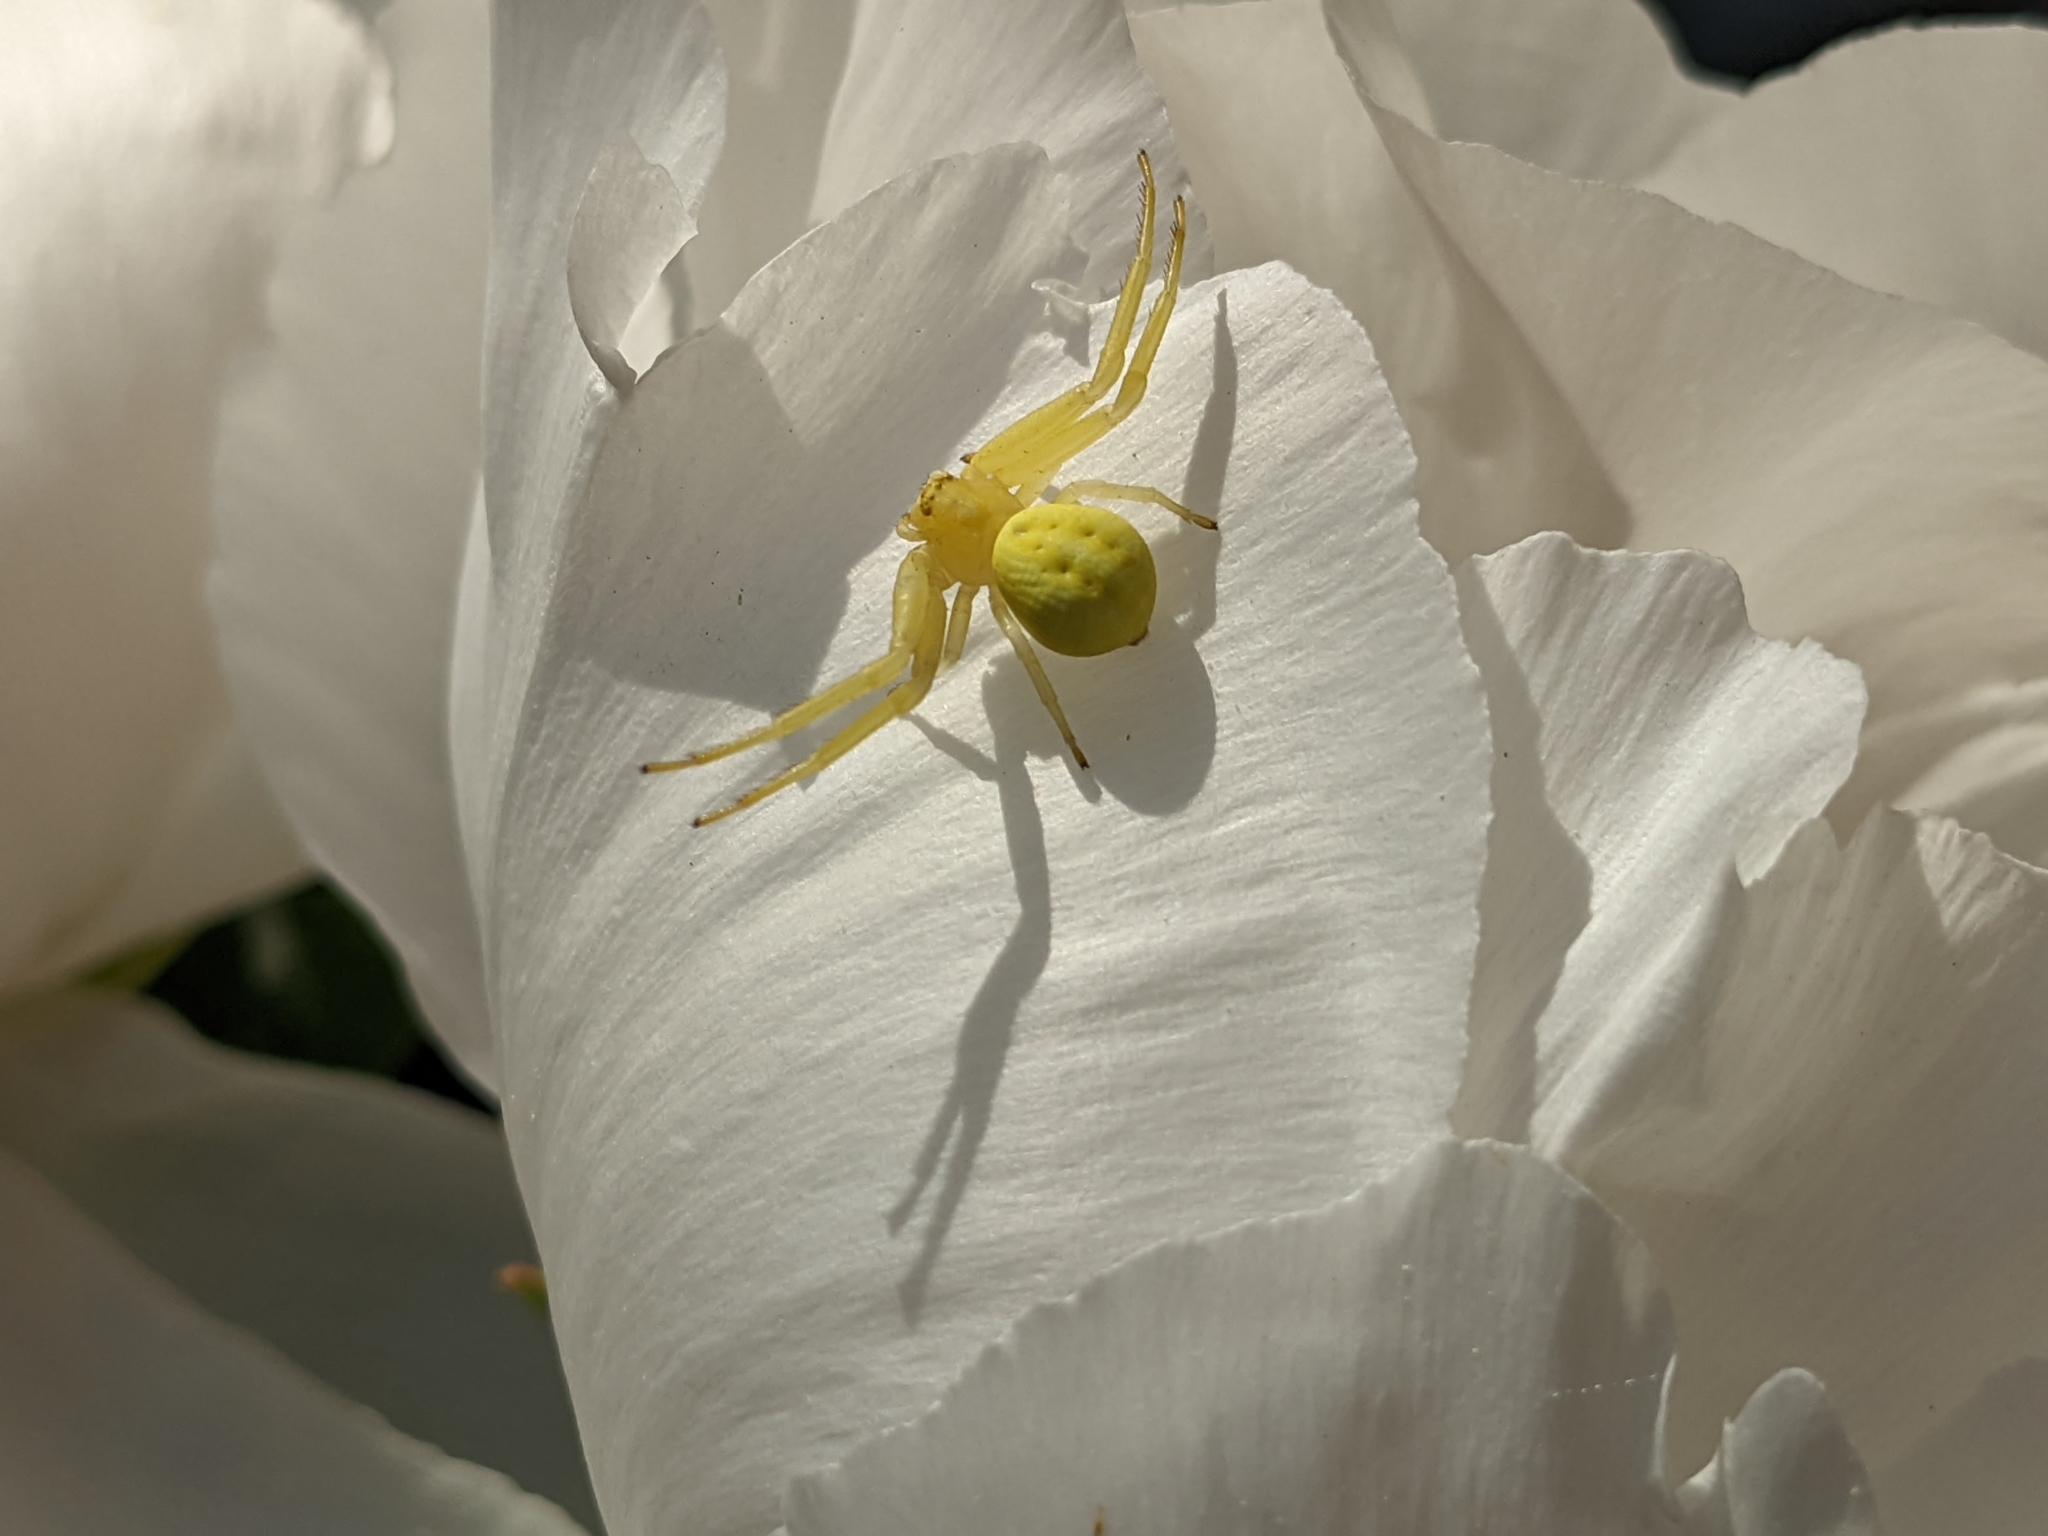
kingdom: Animalia
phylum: Arthropoda
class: Arachnida
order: Araneae
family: Thomisidae
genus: Misumena
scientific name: Misumena vatia
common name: Goldenrod crab spider
